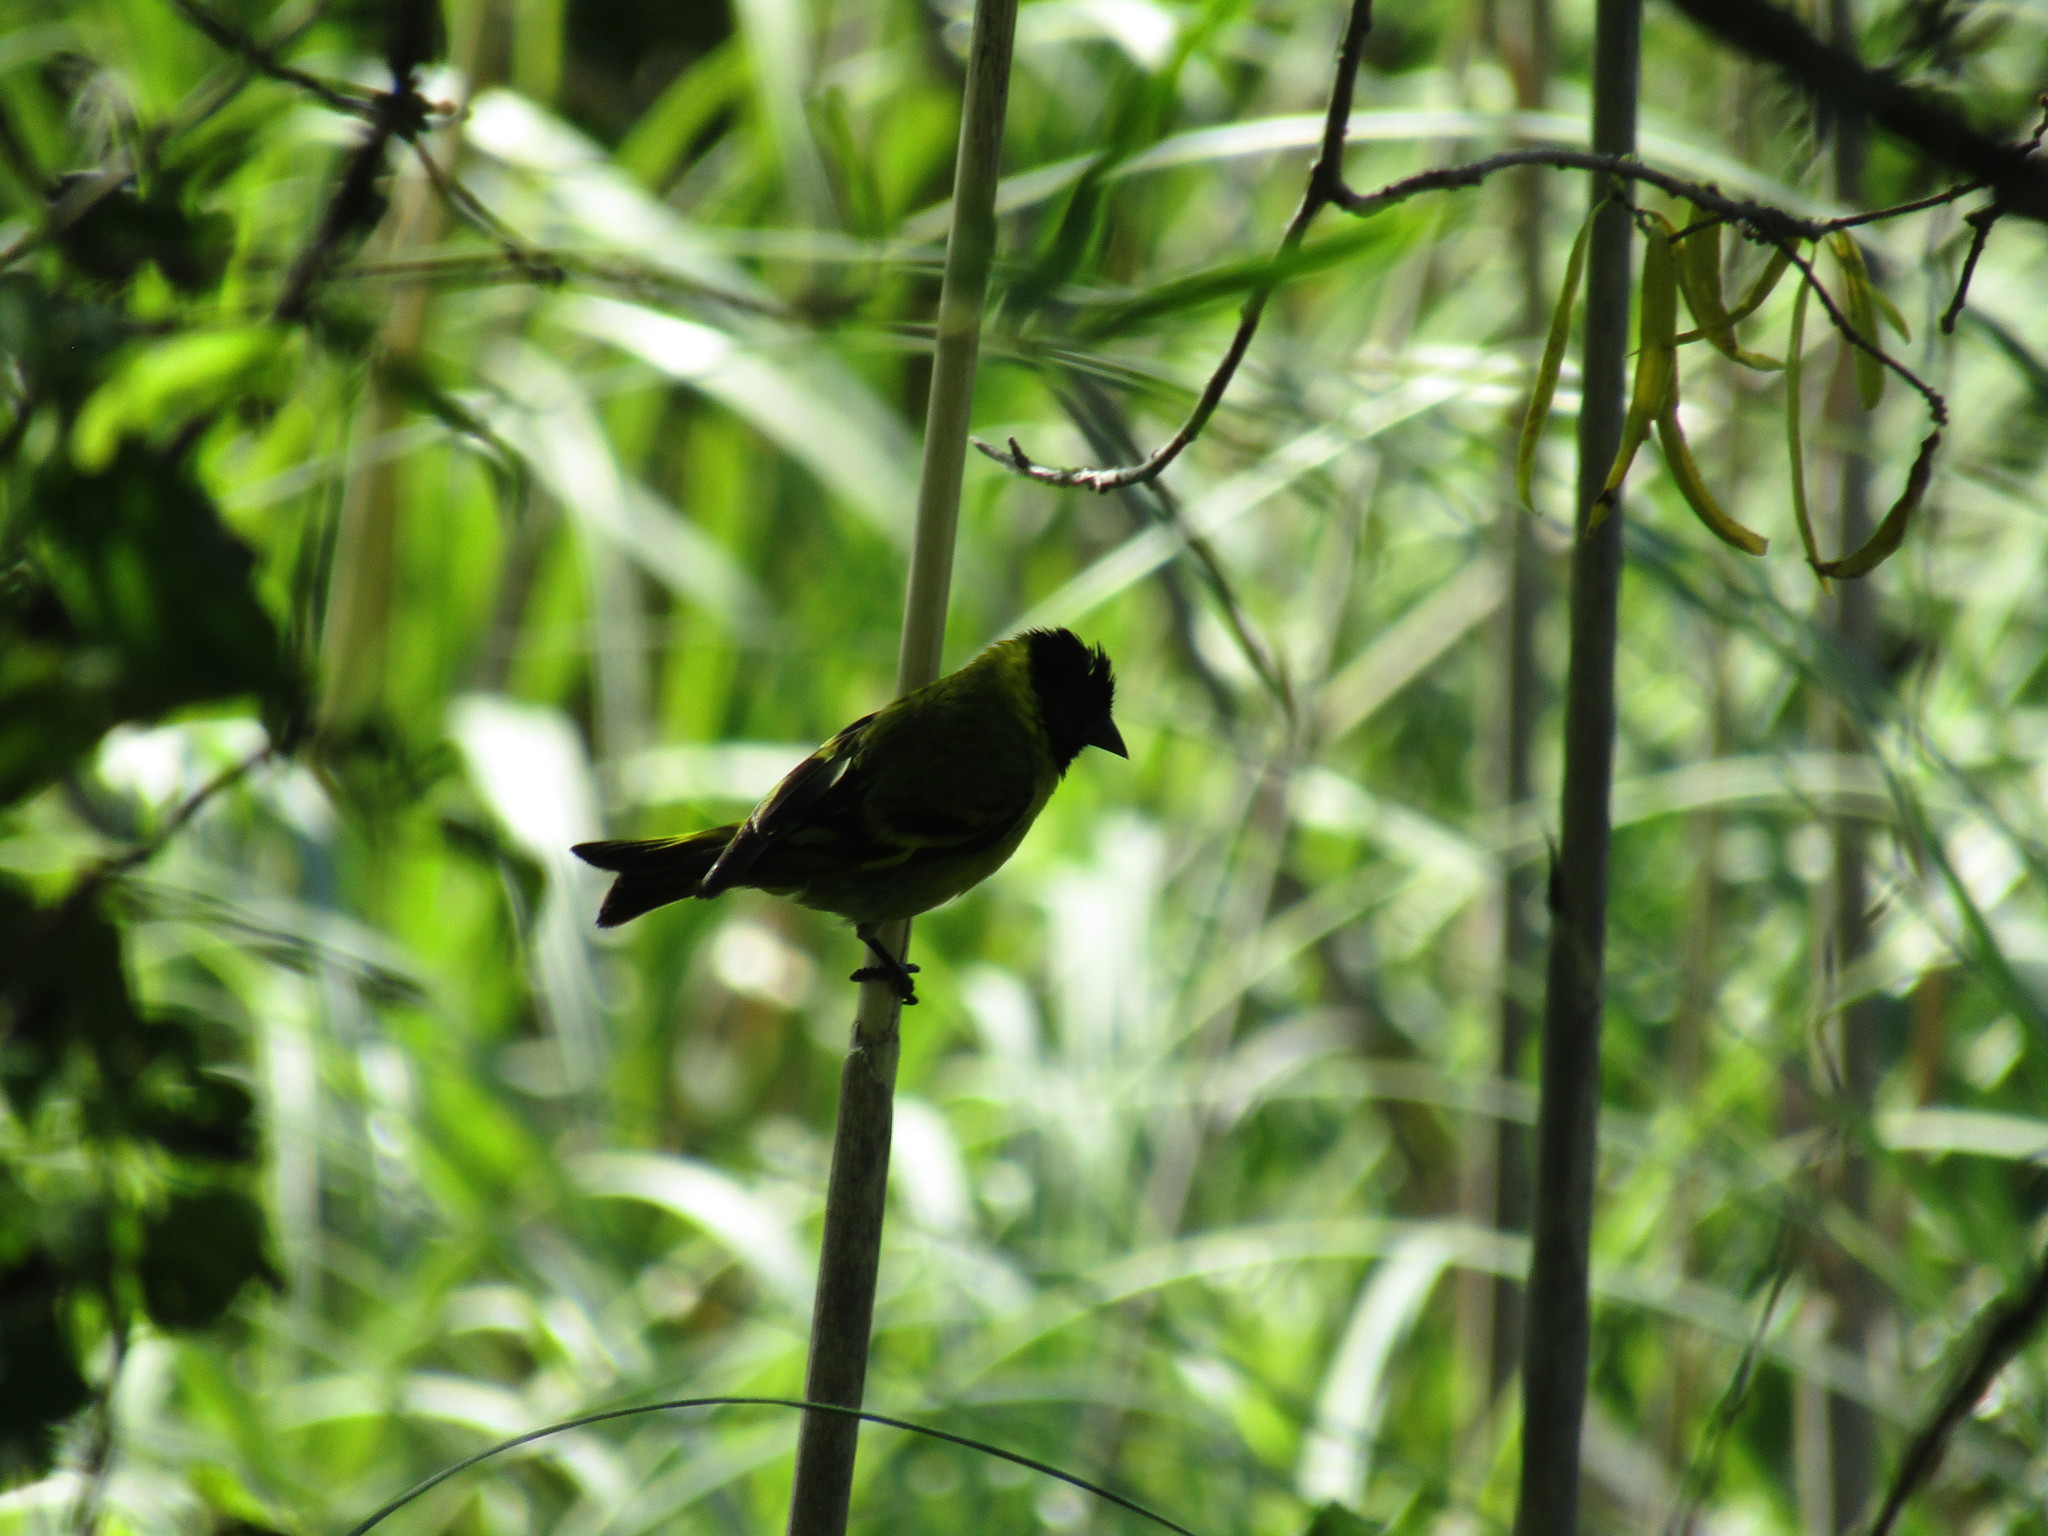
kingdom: Animalia
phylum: Chordata
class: Aves
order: Passeriformes
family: Fringillidae
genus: Spinus
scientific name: Spinus magellanicus
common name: Hooded siskin
